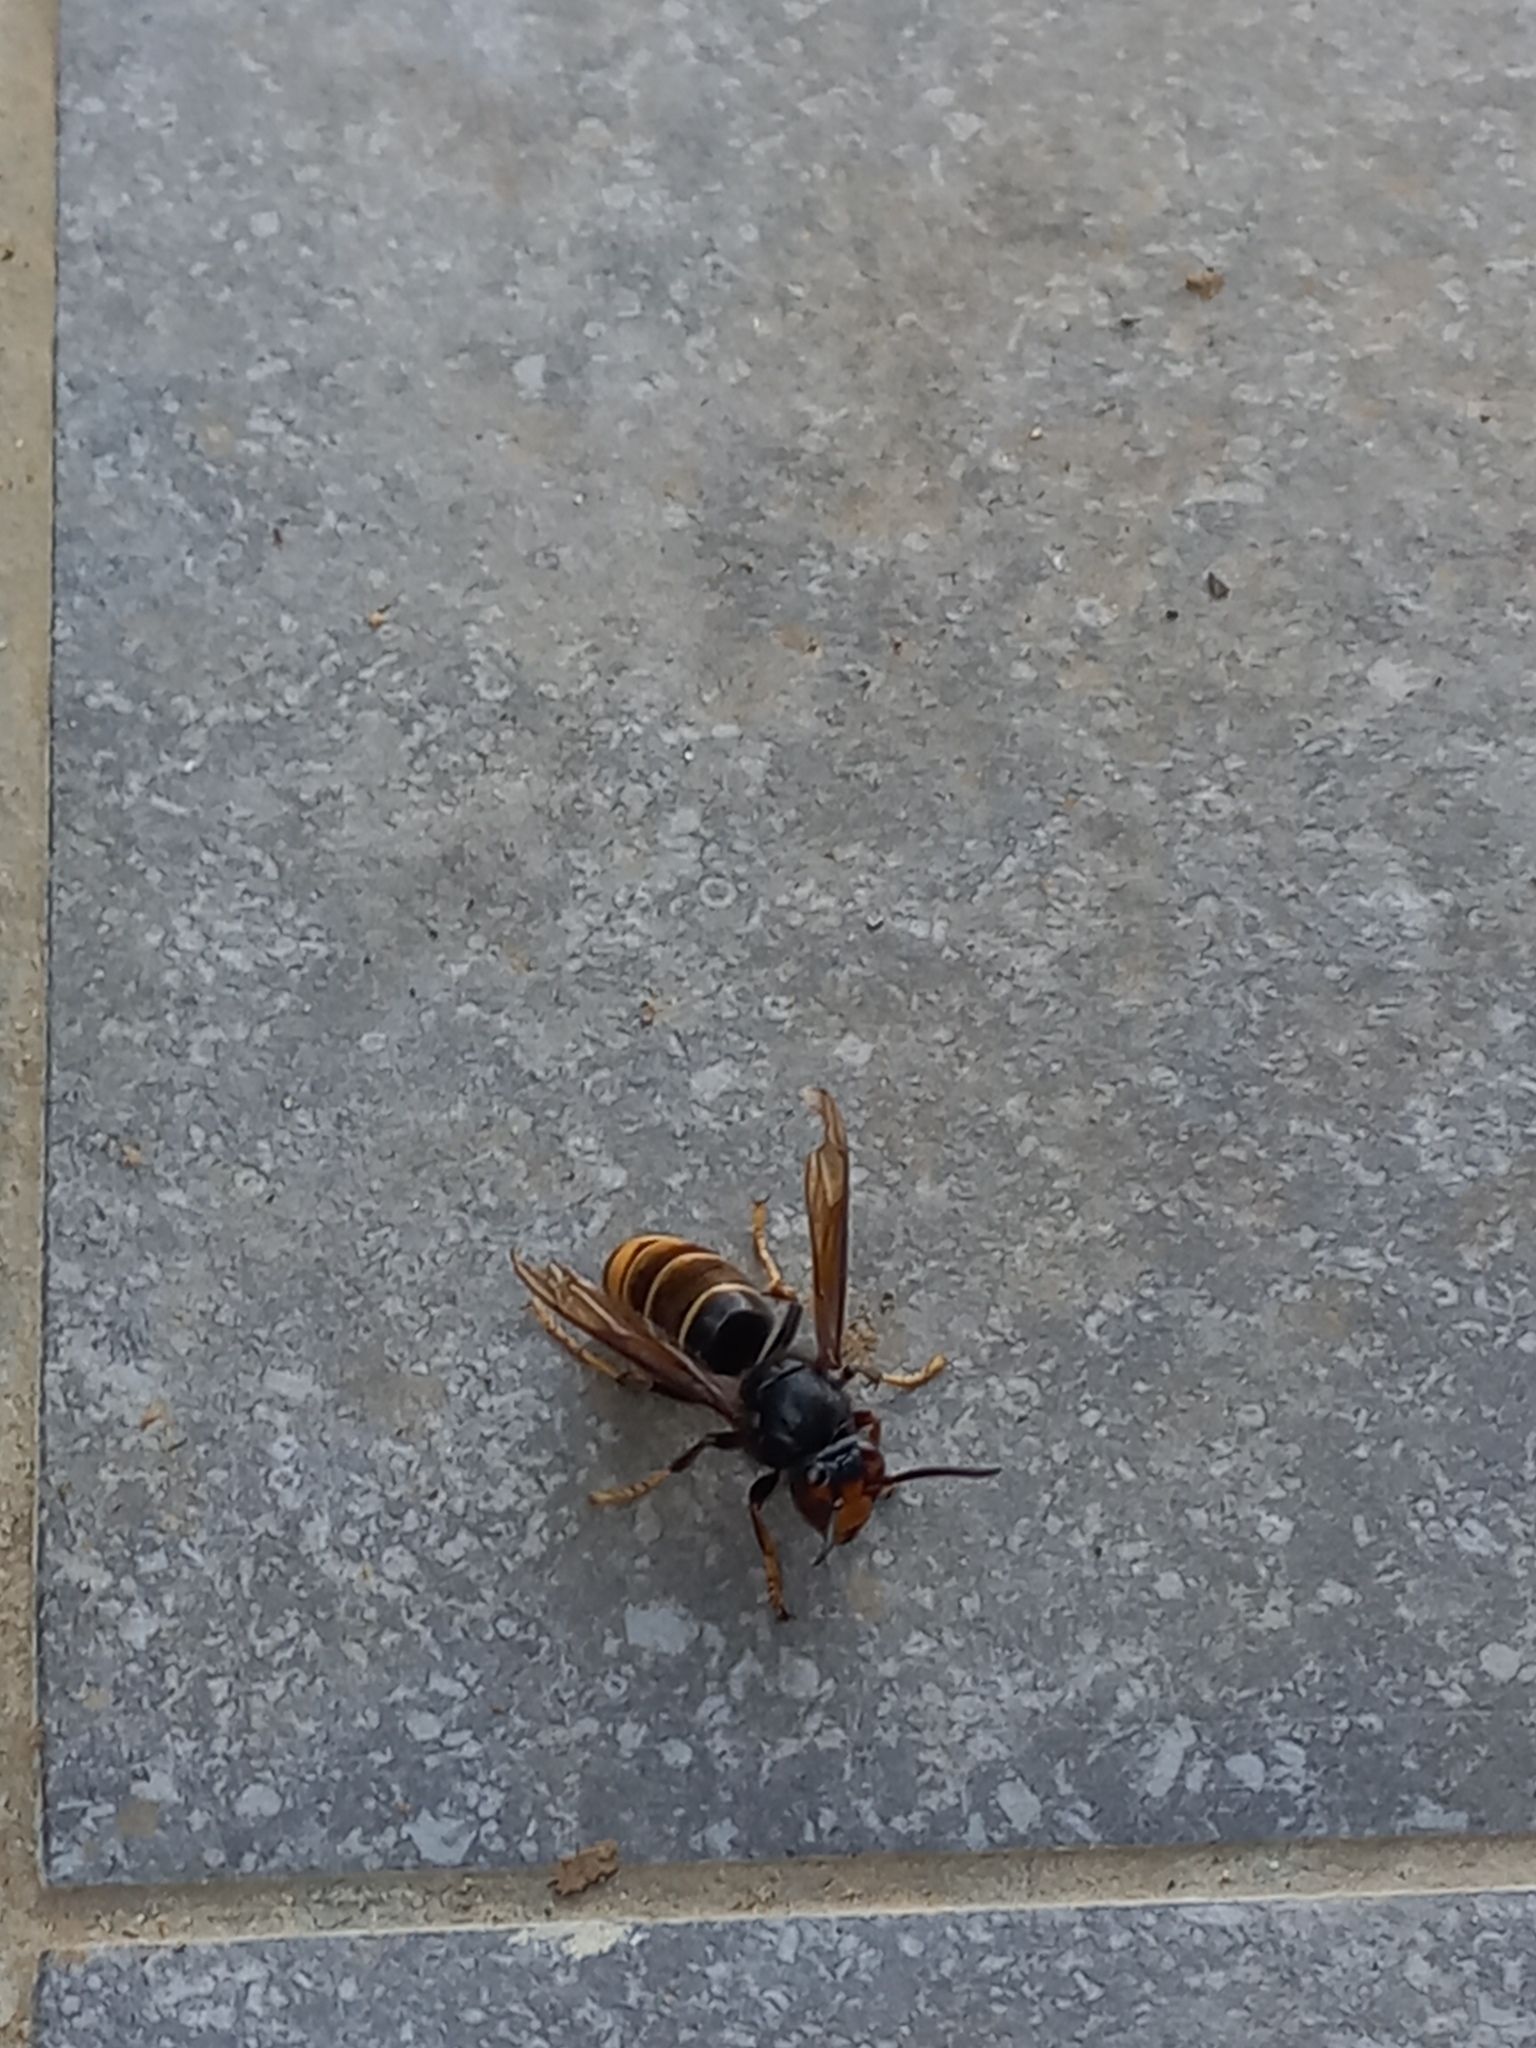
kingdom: Animalia
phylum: Arthropoda
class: Insecta
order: Hymenoptera
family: Vespidae
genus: Vespa
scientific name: Vespa velutina
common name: Asian hornet
